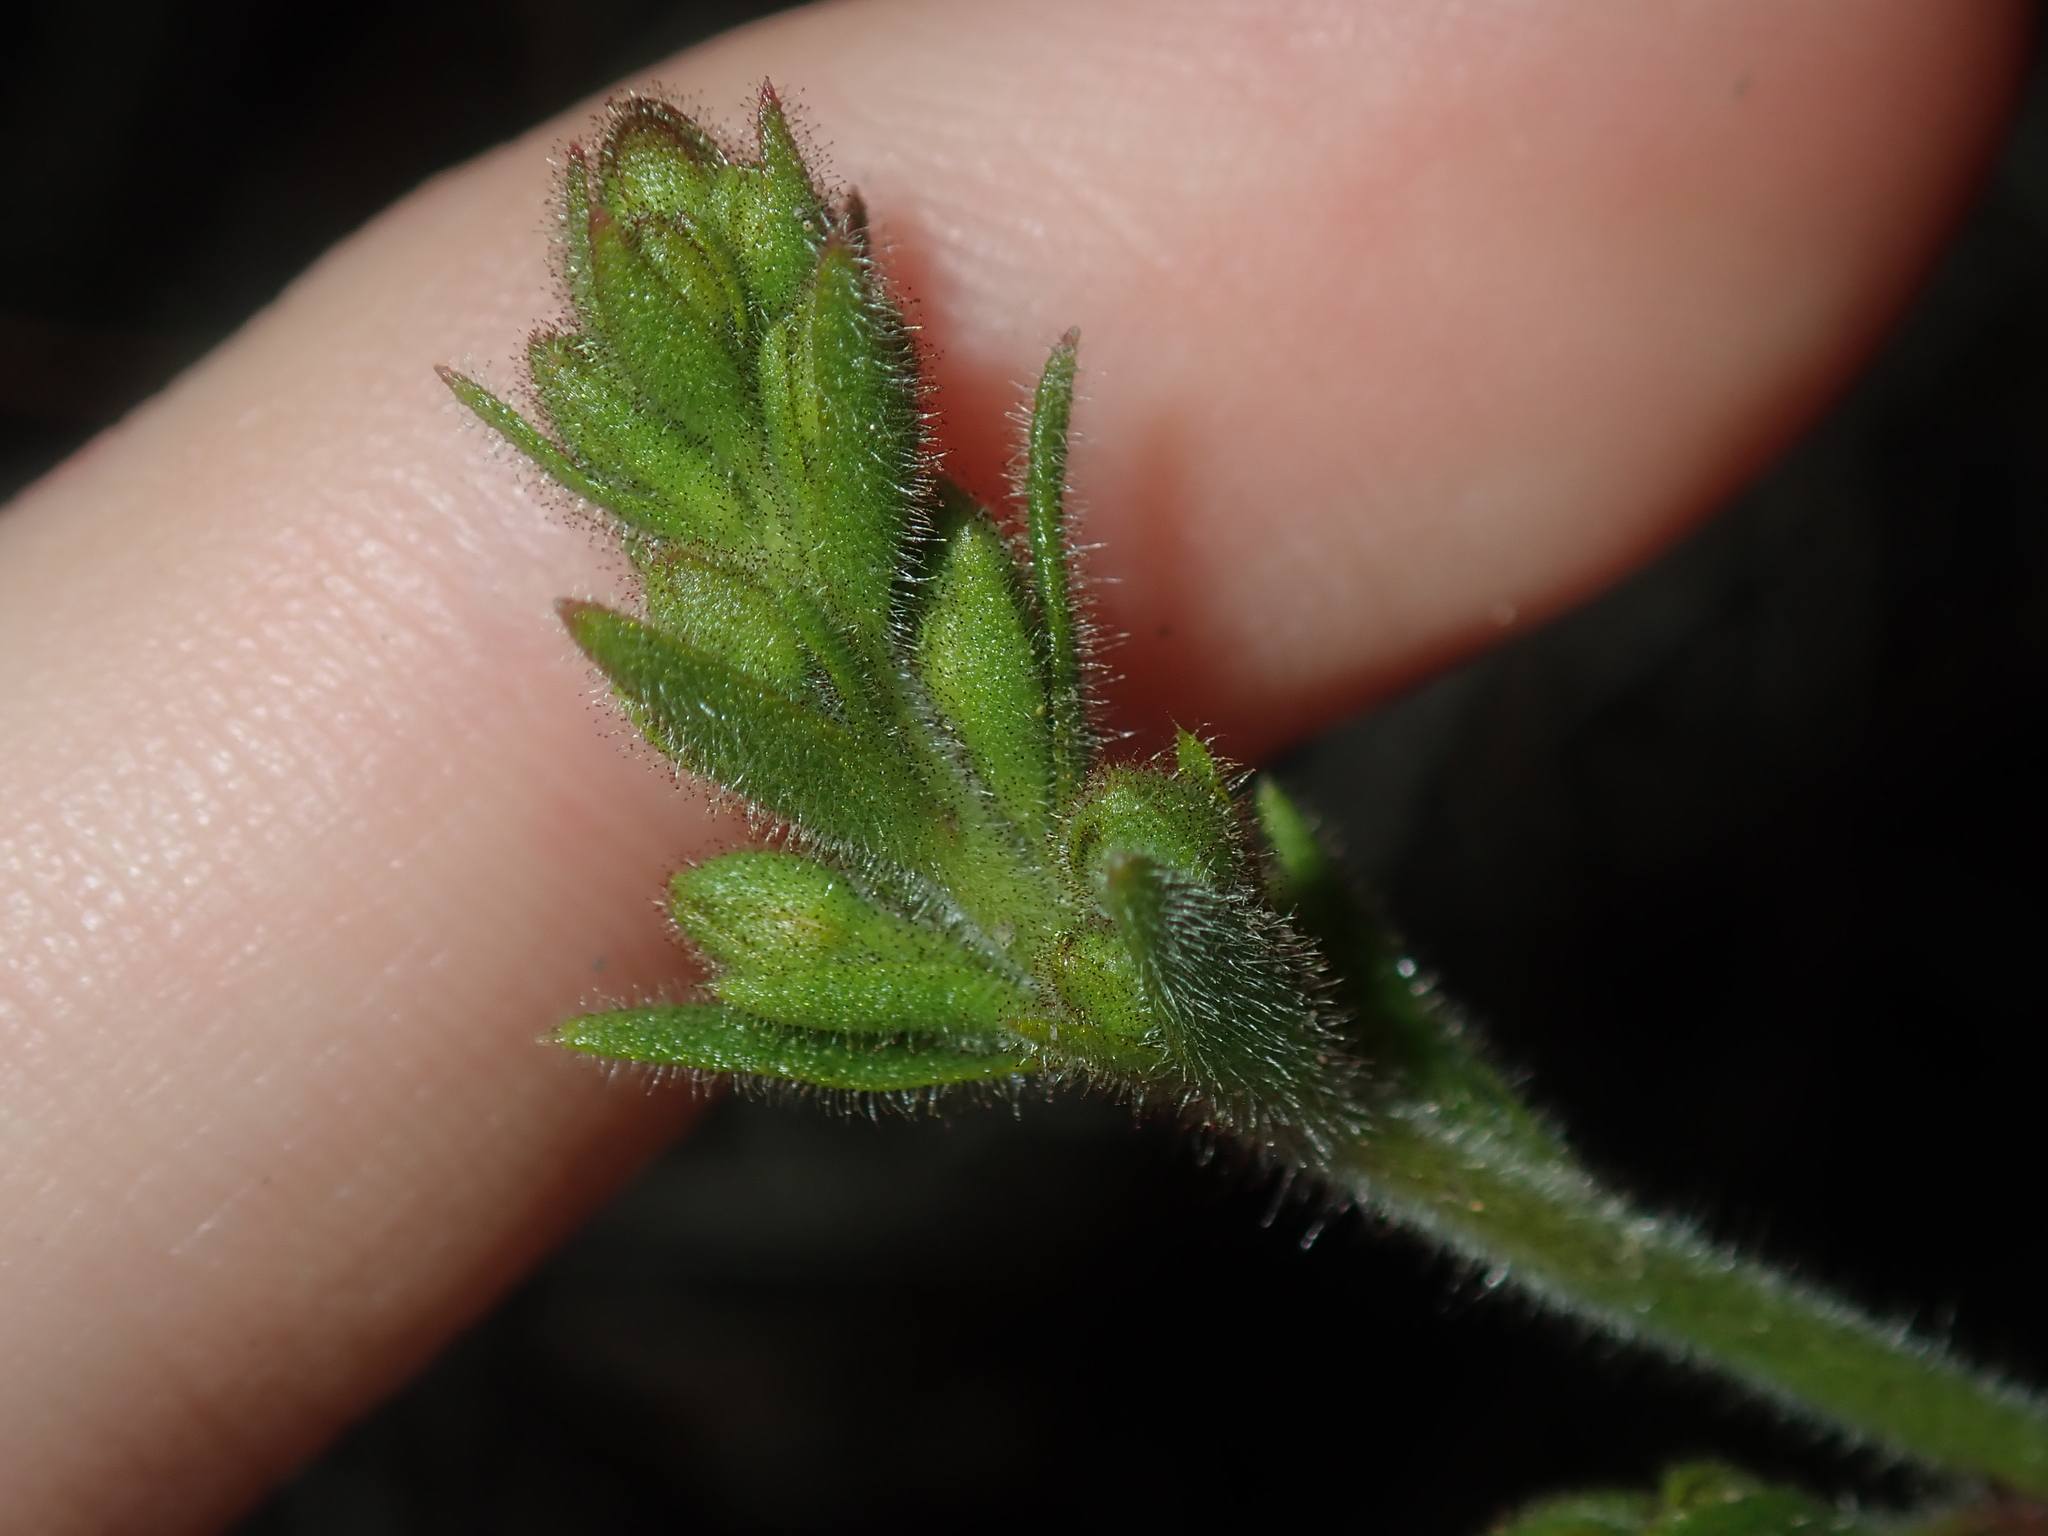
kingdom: Plantae
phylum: Tracheophyta
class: Magnoliopsida
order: Asterales
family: Stylidiaceae
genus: Stylidium
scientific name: Stylidium pycnostachyum
